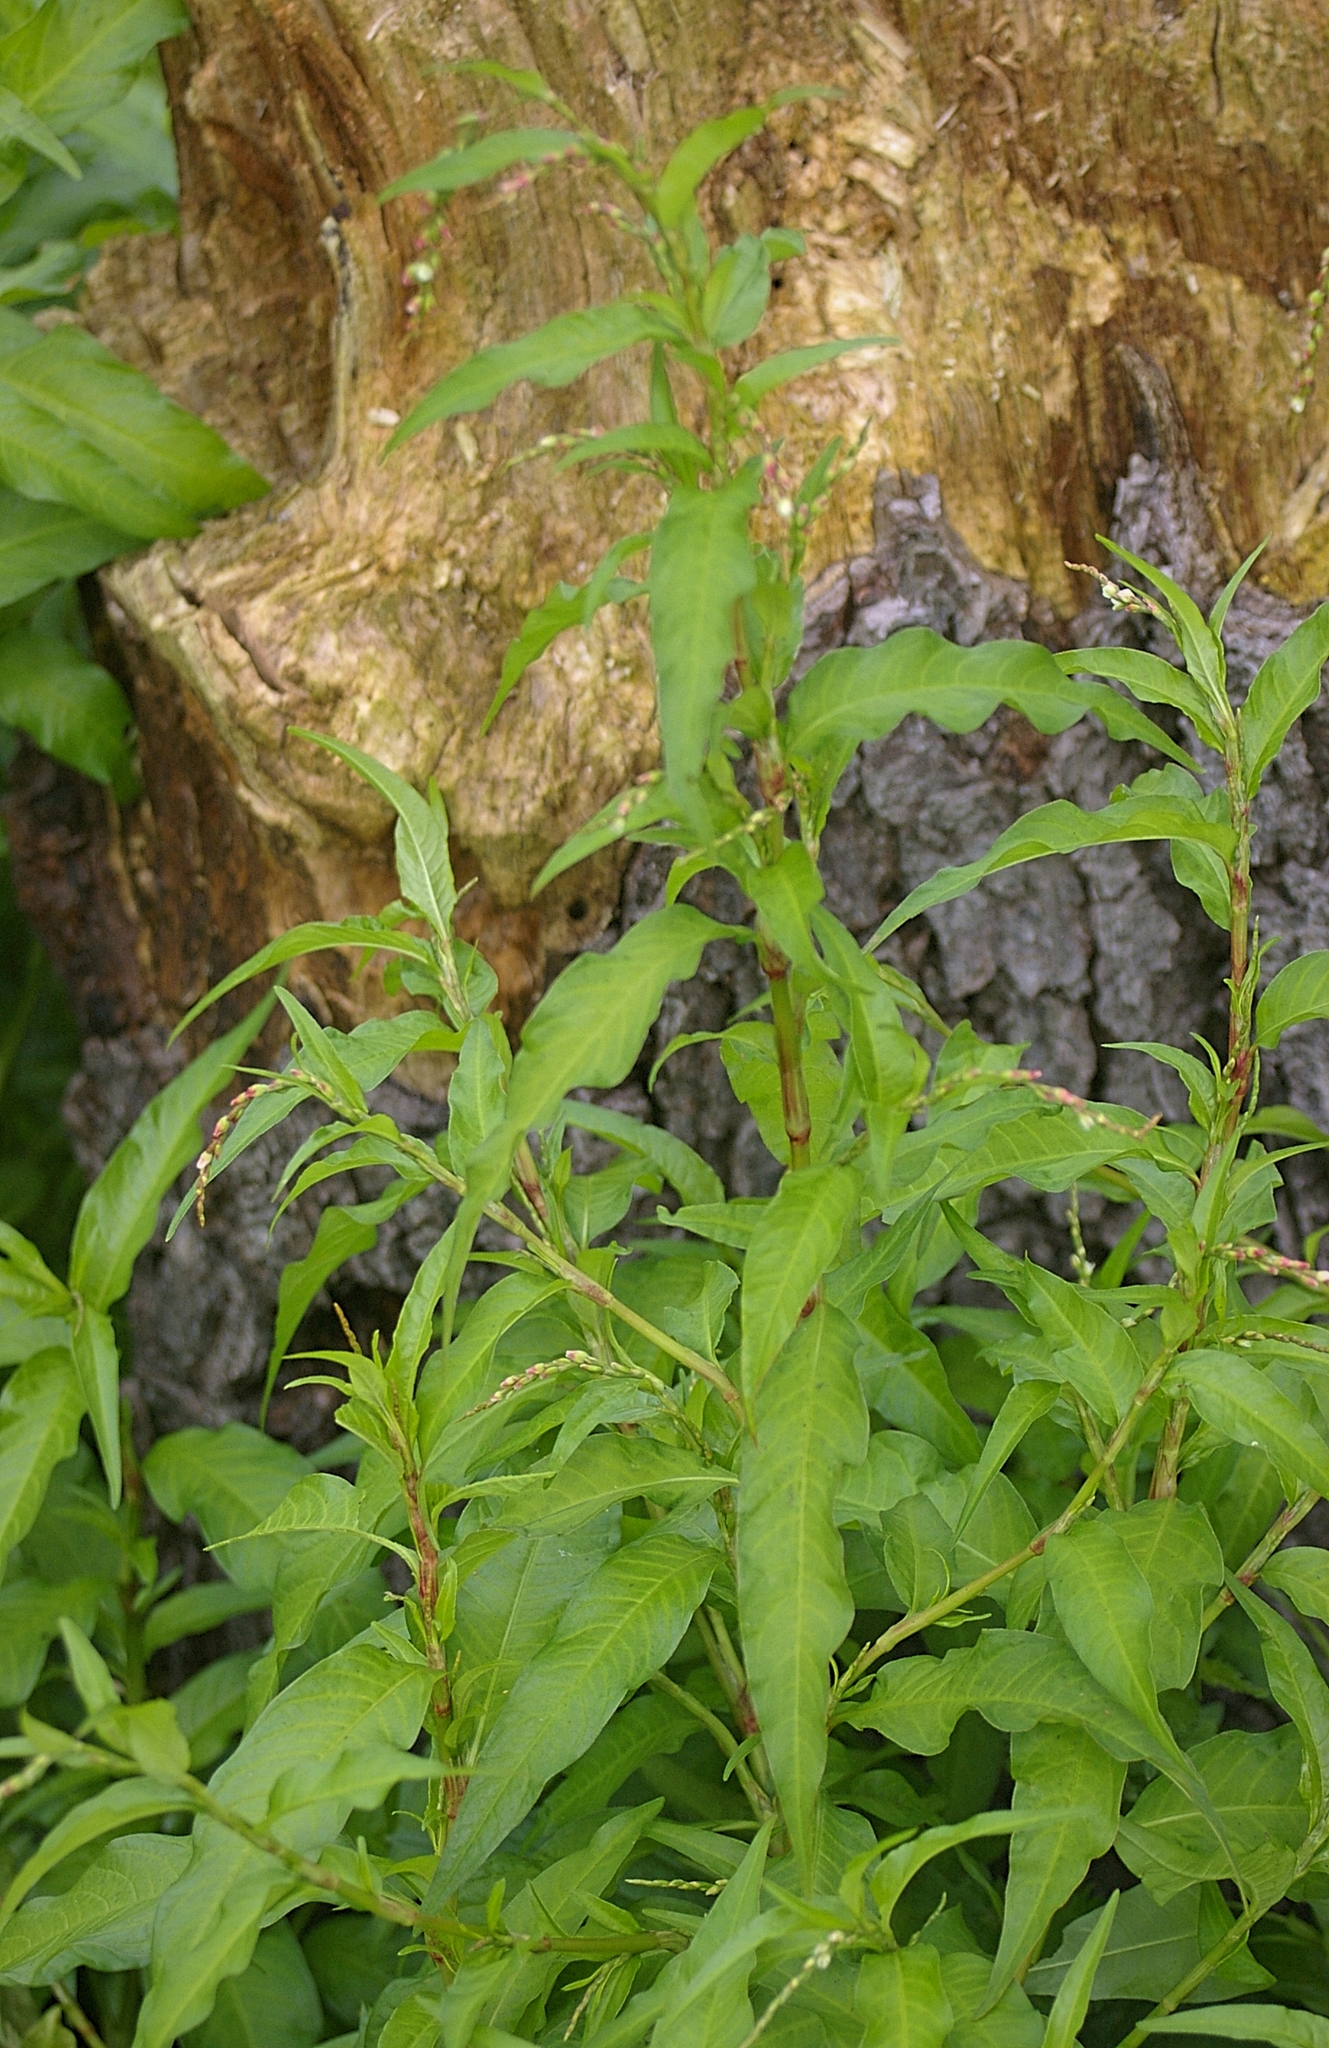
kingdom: Plantae
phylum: Tracheophyta
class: Magnoliopsida
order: Caryophyllales
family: Polygonaceae
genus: Persicaria
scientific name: Persicaria hydropiper
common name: Water-pepper
